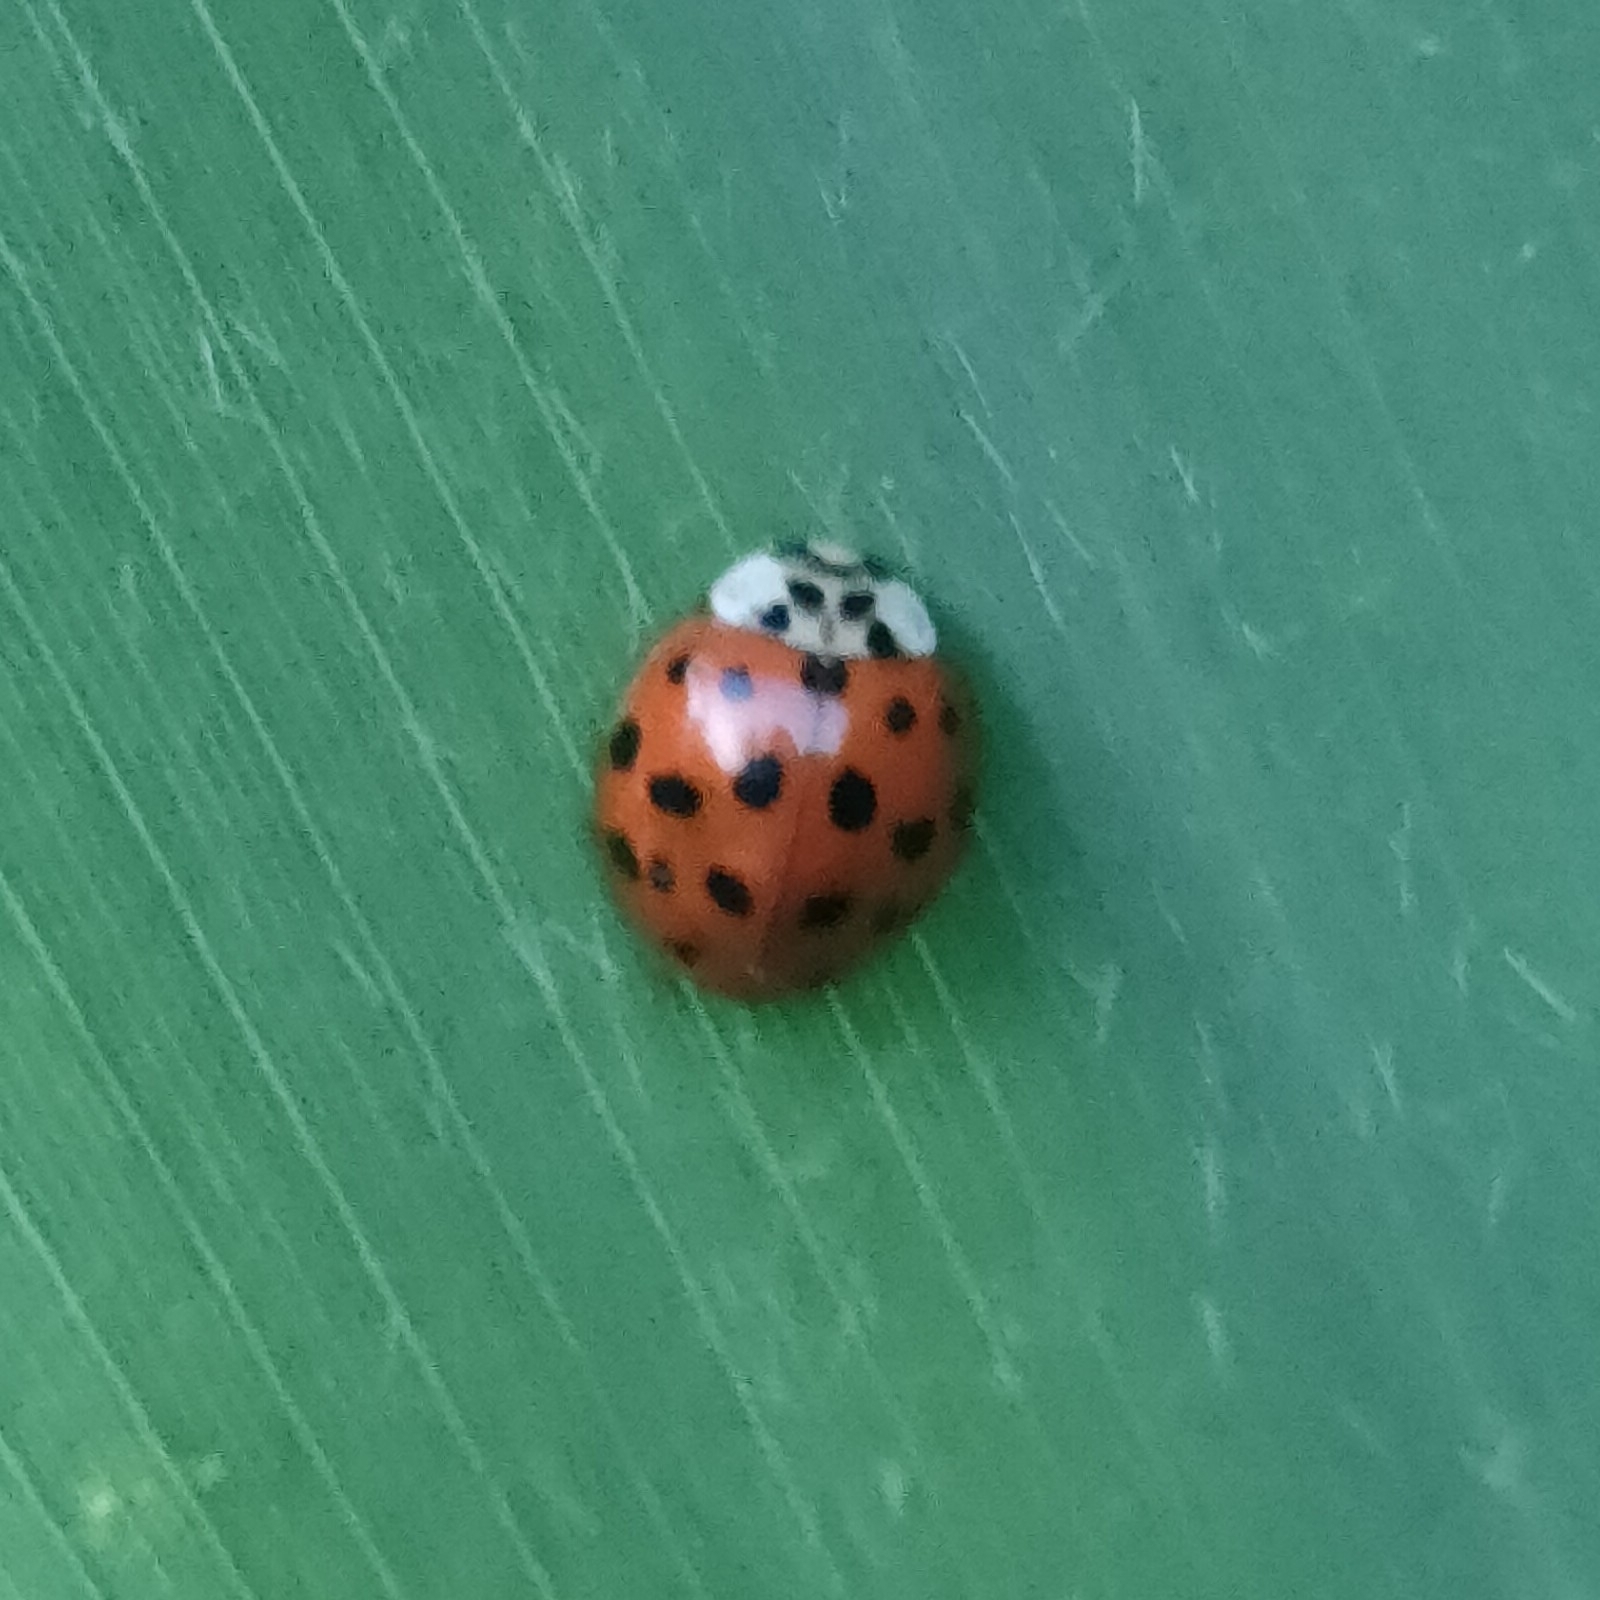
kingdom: Animalia
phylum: Arthropoda
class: Insecta
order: Coleoptera
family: Coccinellidae
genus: Harmonia
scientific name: Harmonia axyridis
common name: Harlequin ladybird
